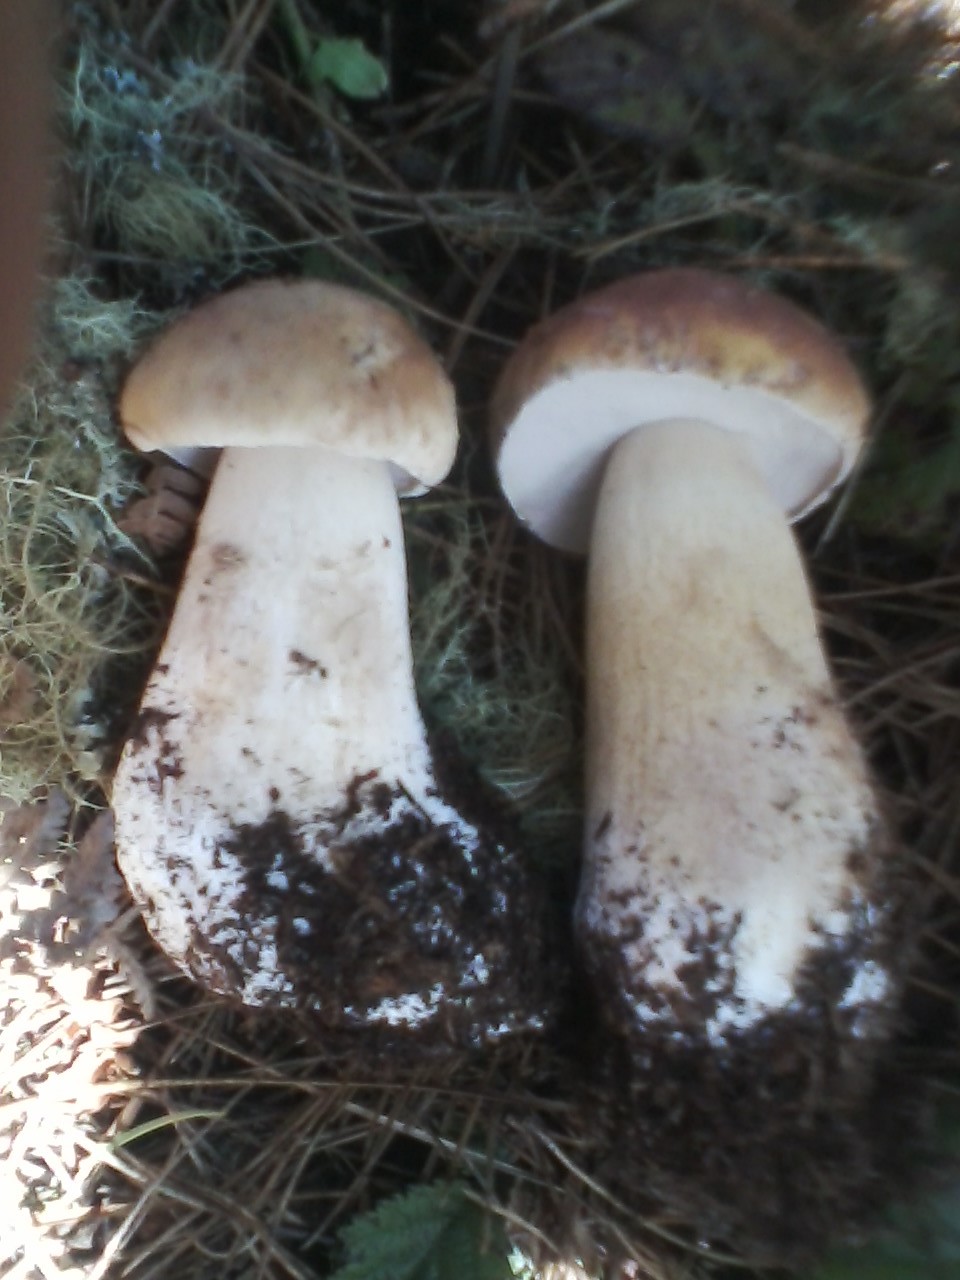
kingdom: Fungi
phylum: Basidiomycota
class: Agaricomycetes
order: Boletales
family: Boletaceae
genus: Boletus
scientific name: Boletus edulis
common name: Cep
